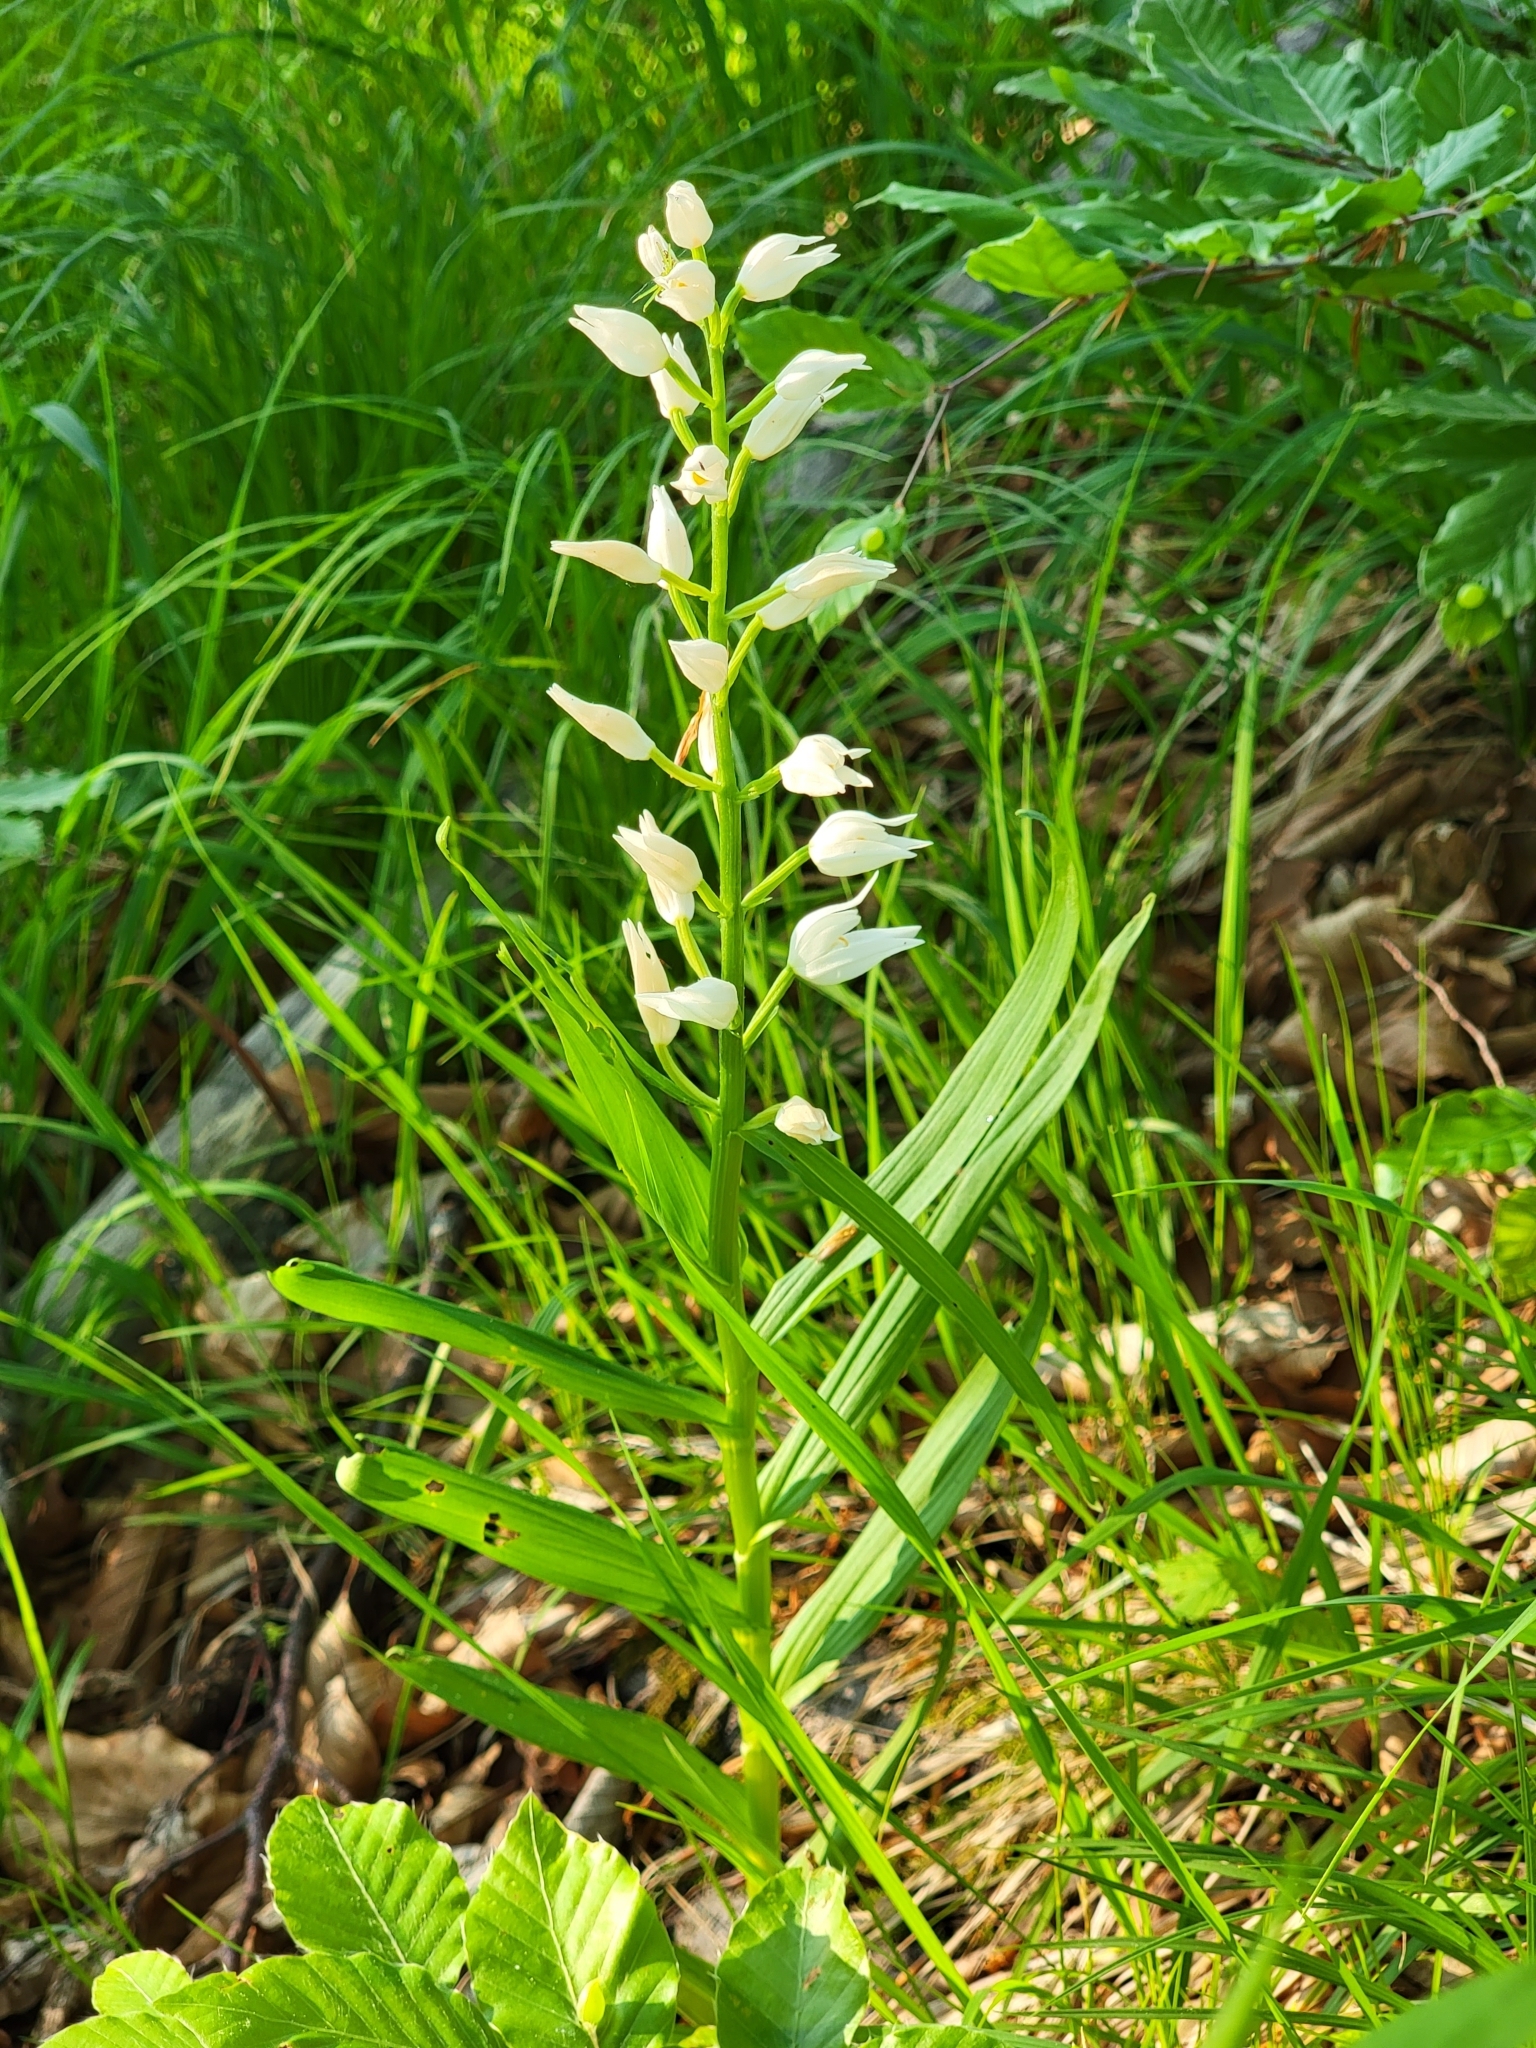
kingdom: Plantae
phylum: Tracheophyta
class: Liliopsida
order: Asparagales
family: Orchidaceae
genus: Cephalanthera
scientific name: Cephalanthera longifolia
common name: Narrow-leaved helleborine
